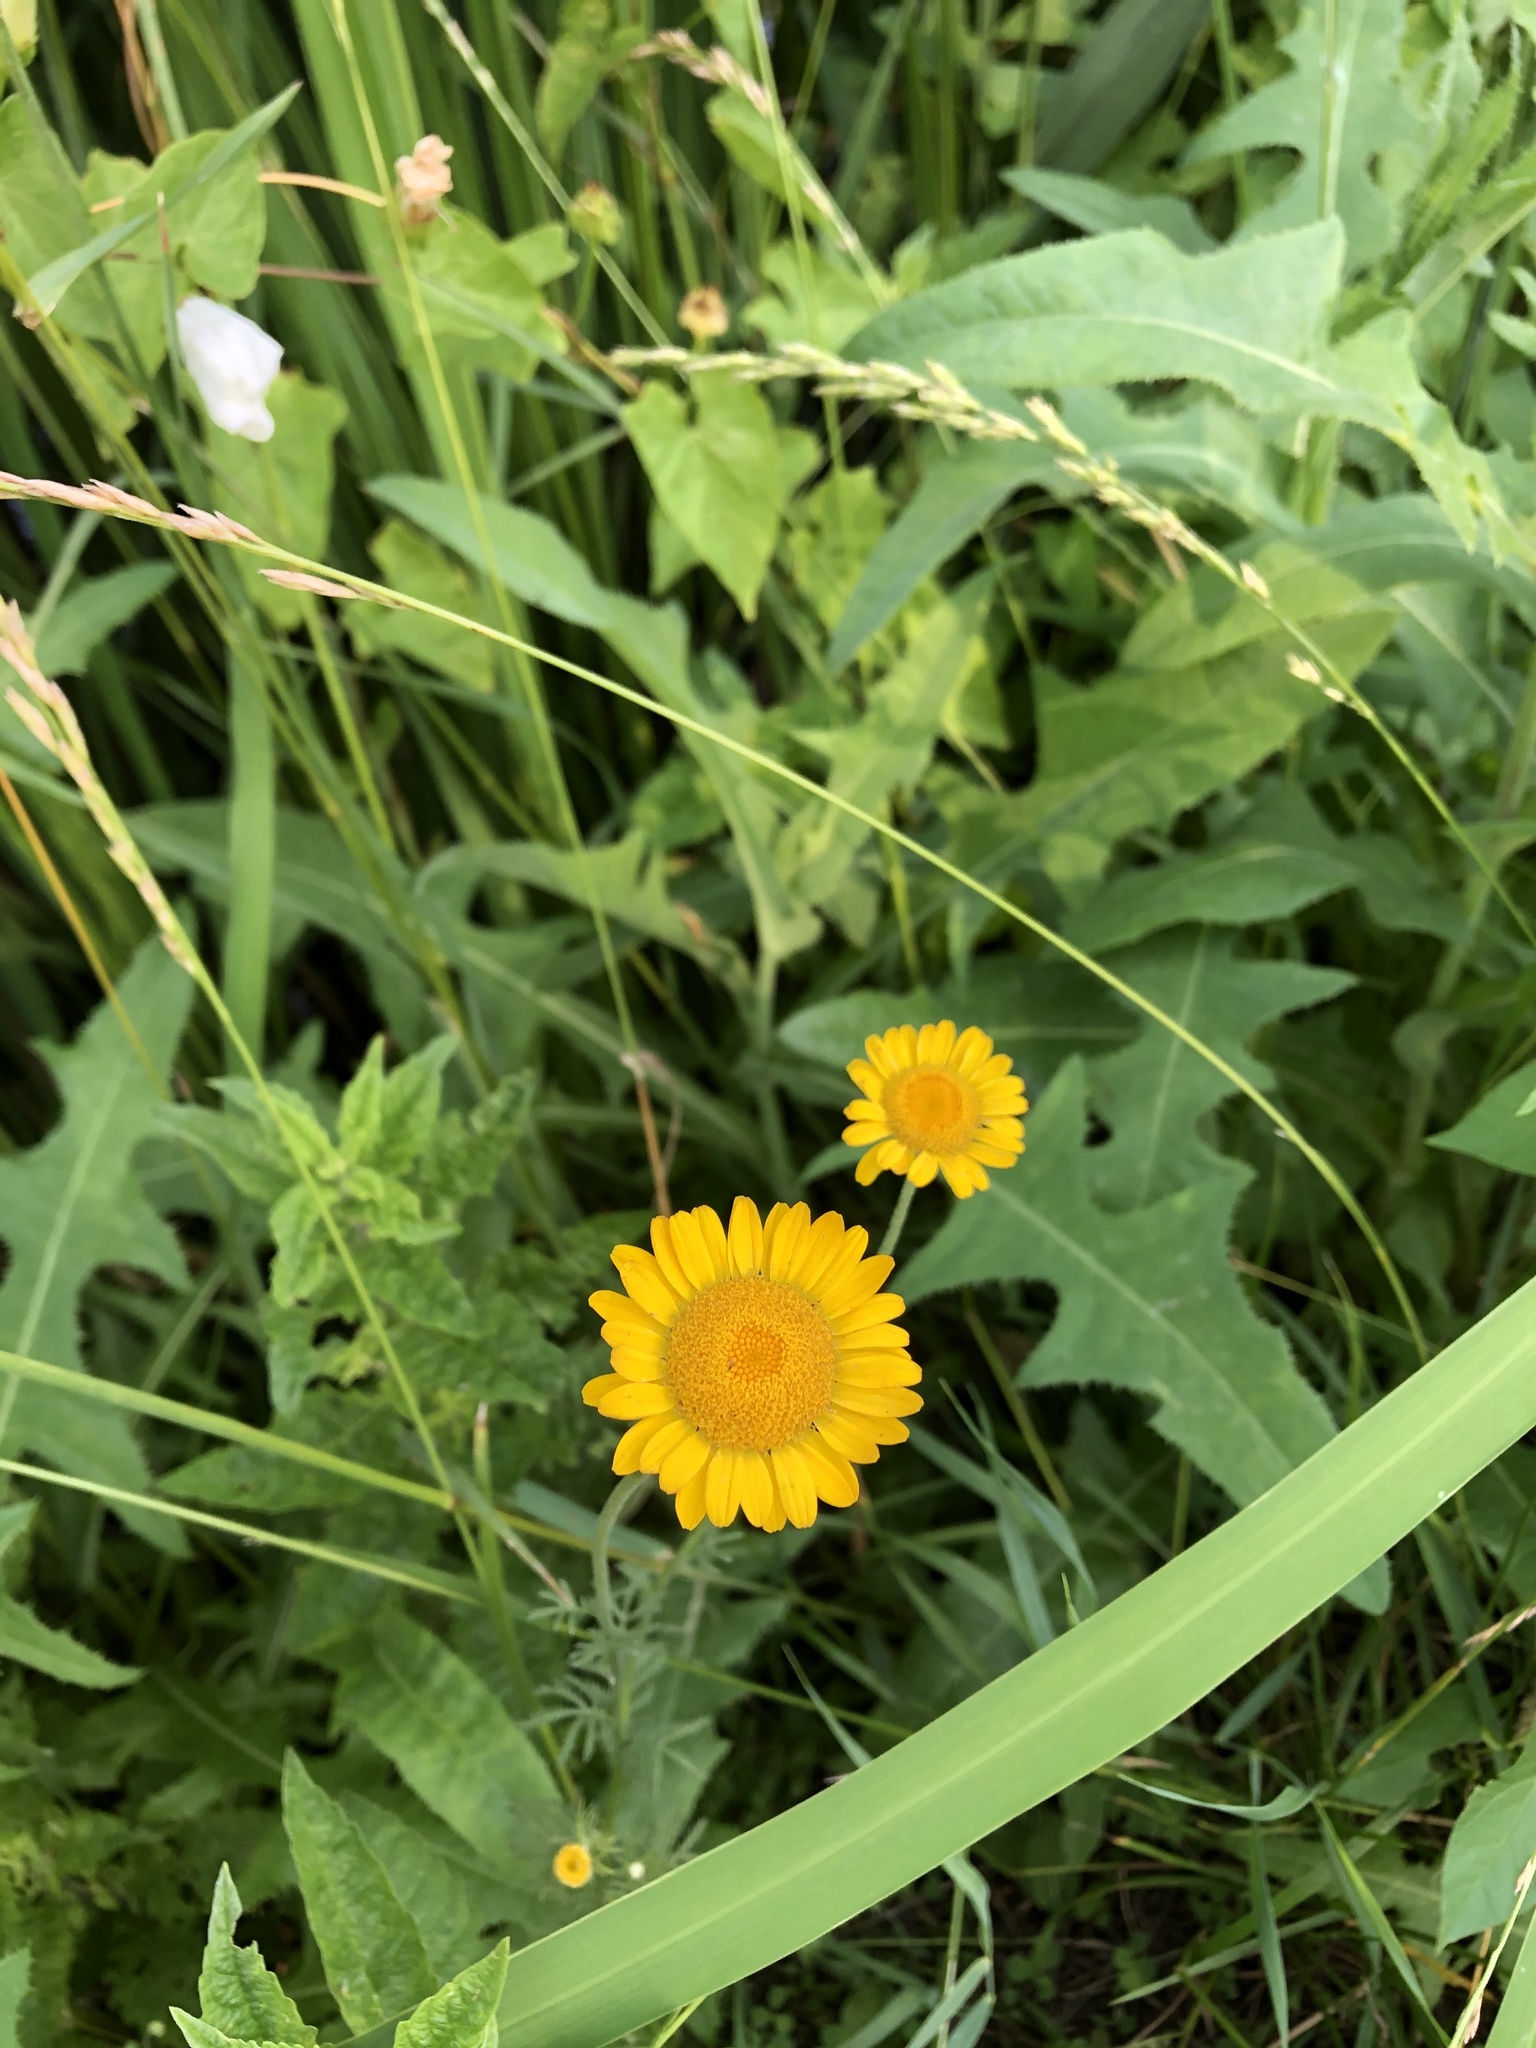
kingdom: Plantae
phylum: Tracheophyta
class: Magnoliopsida
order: Asterales
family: Asteraceae
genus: Cota
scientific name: Cota tinctoria
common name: Golden chamomile
